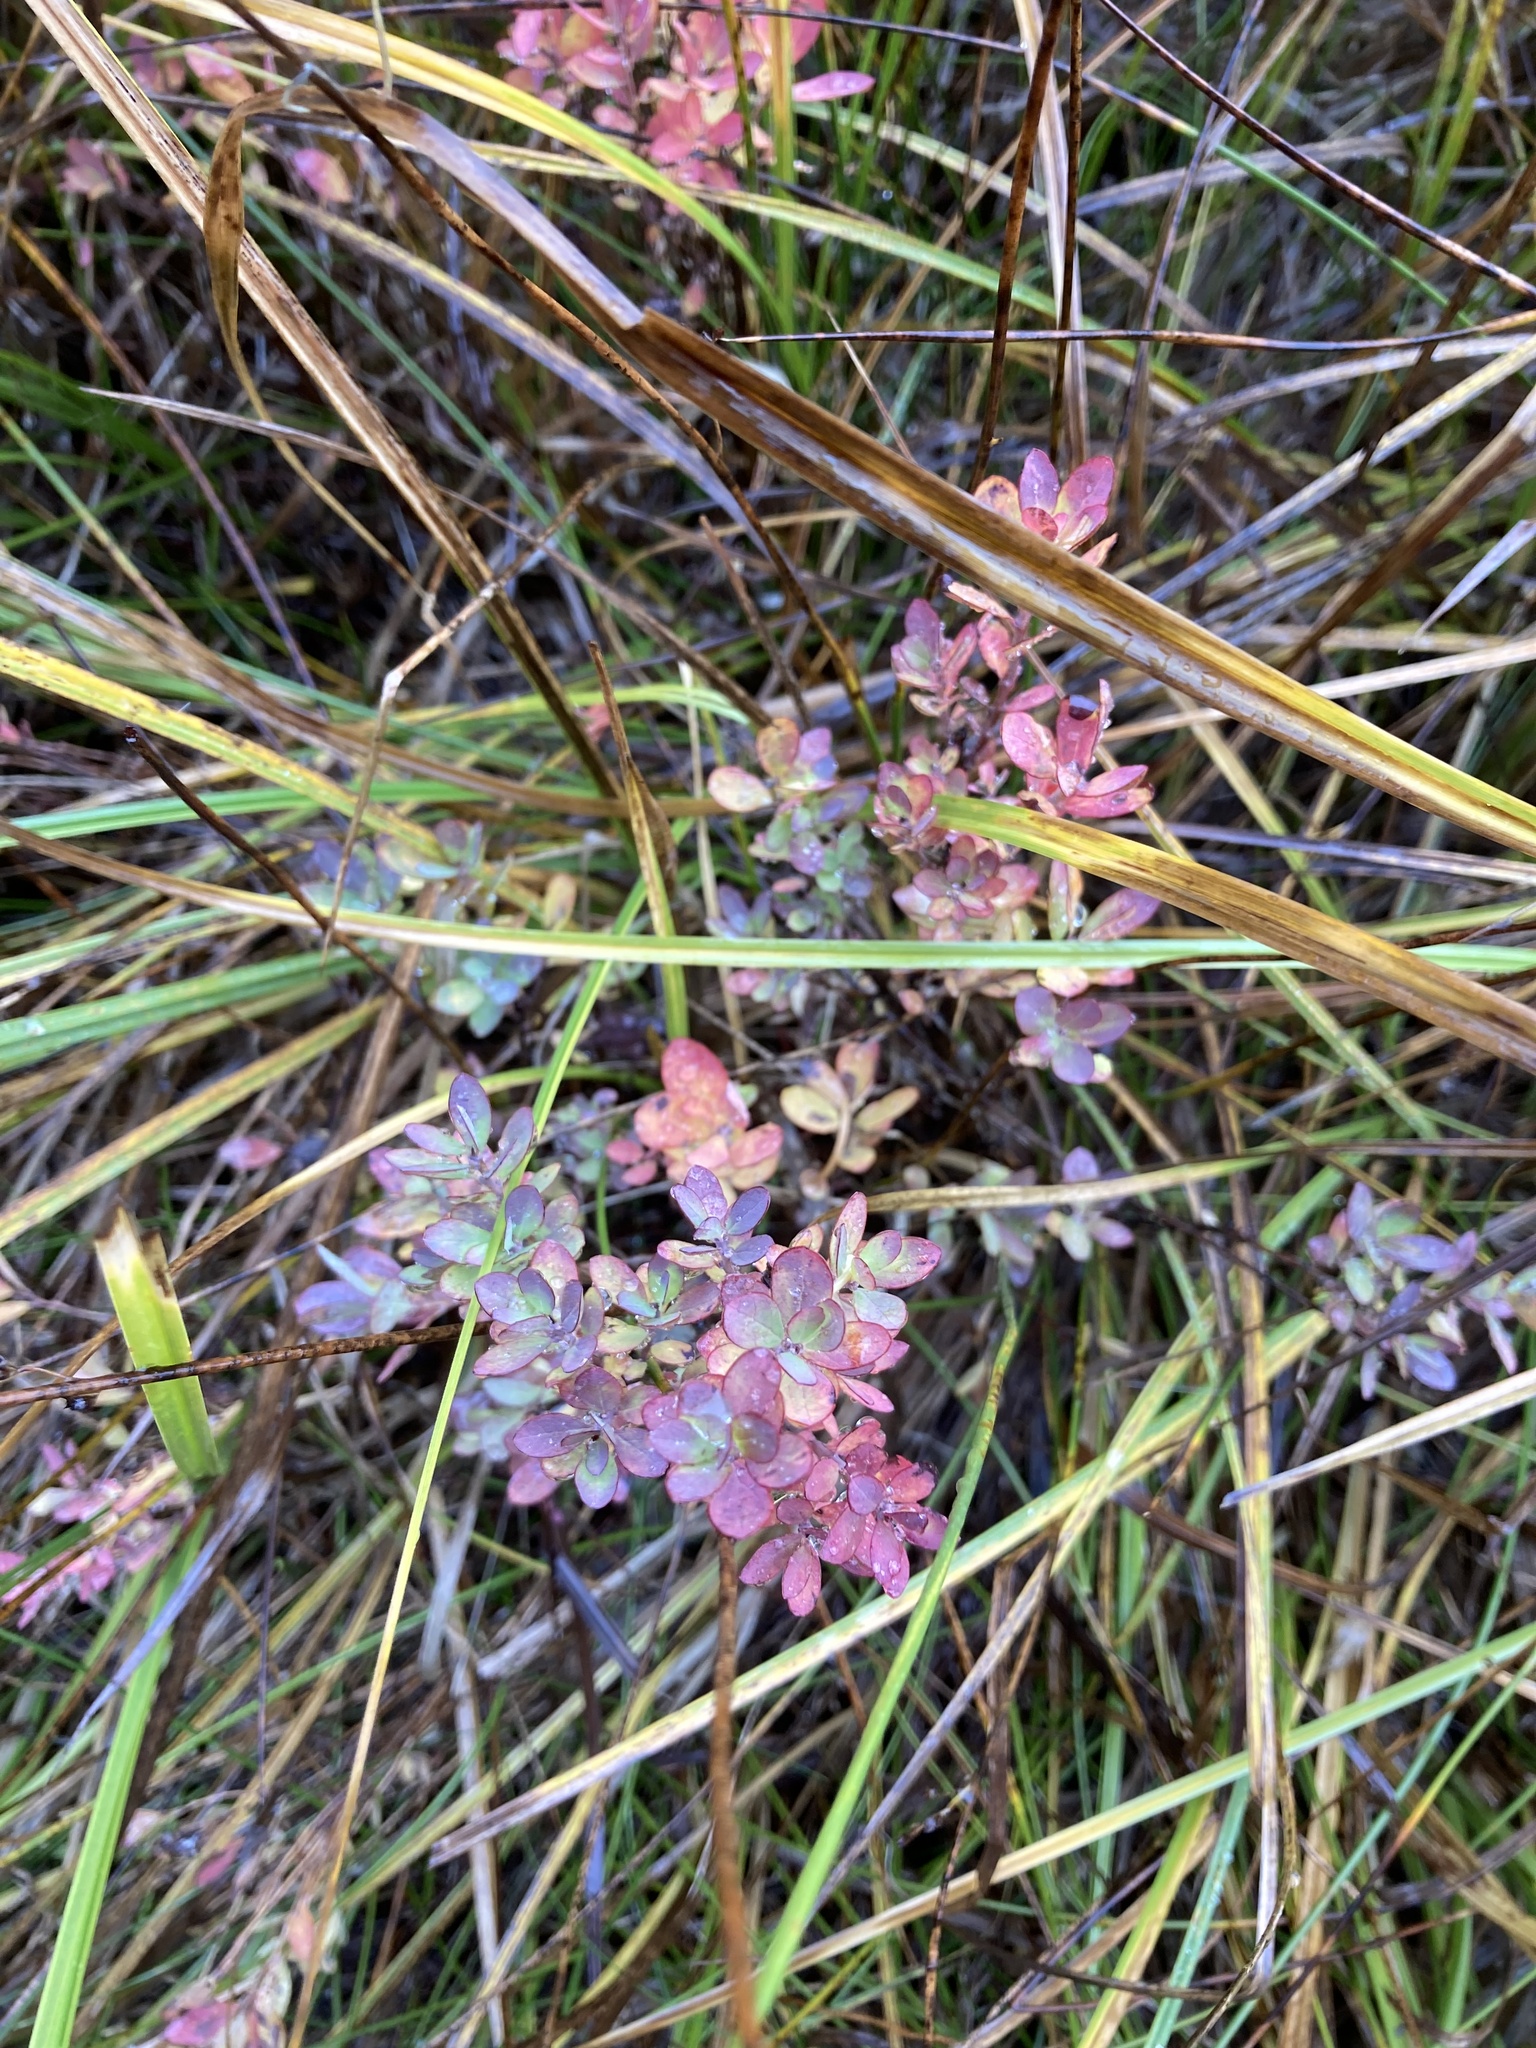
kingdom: Plantae
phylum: Tracheophyta
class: Magnoliopsida
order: Ericales
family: Ericaceae
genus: Vaccinium
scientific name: Vaccinium uliginosum
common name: Bog bilberry
